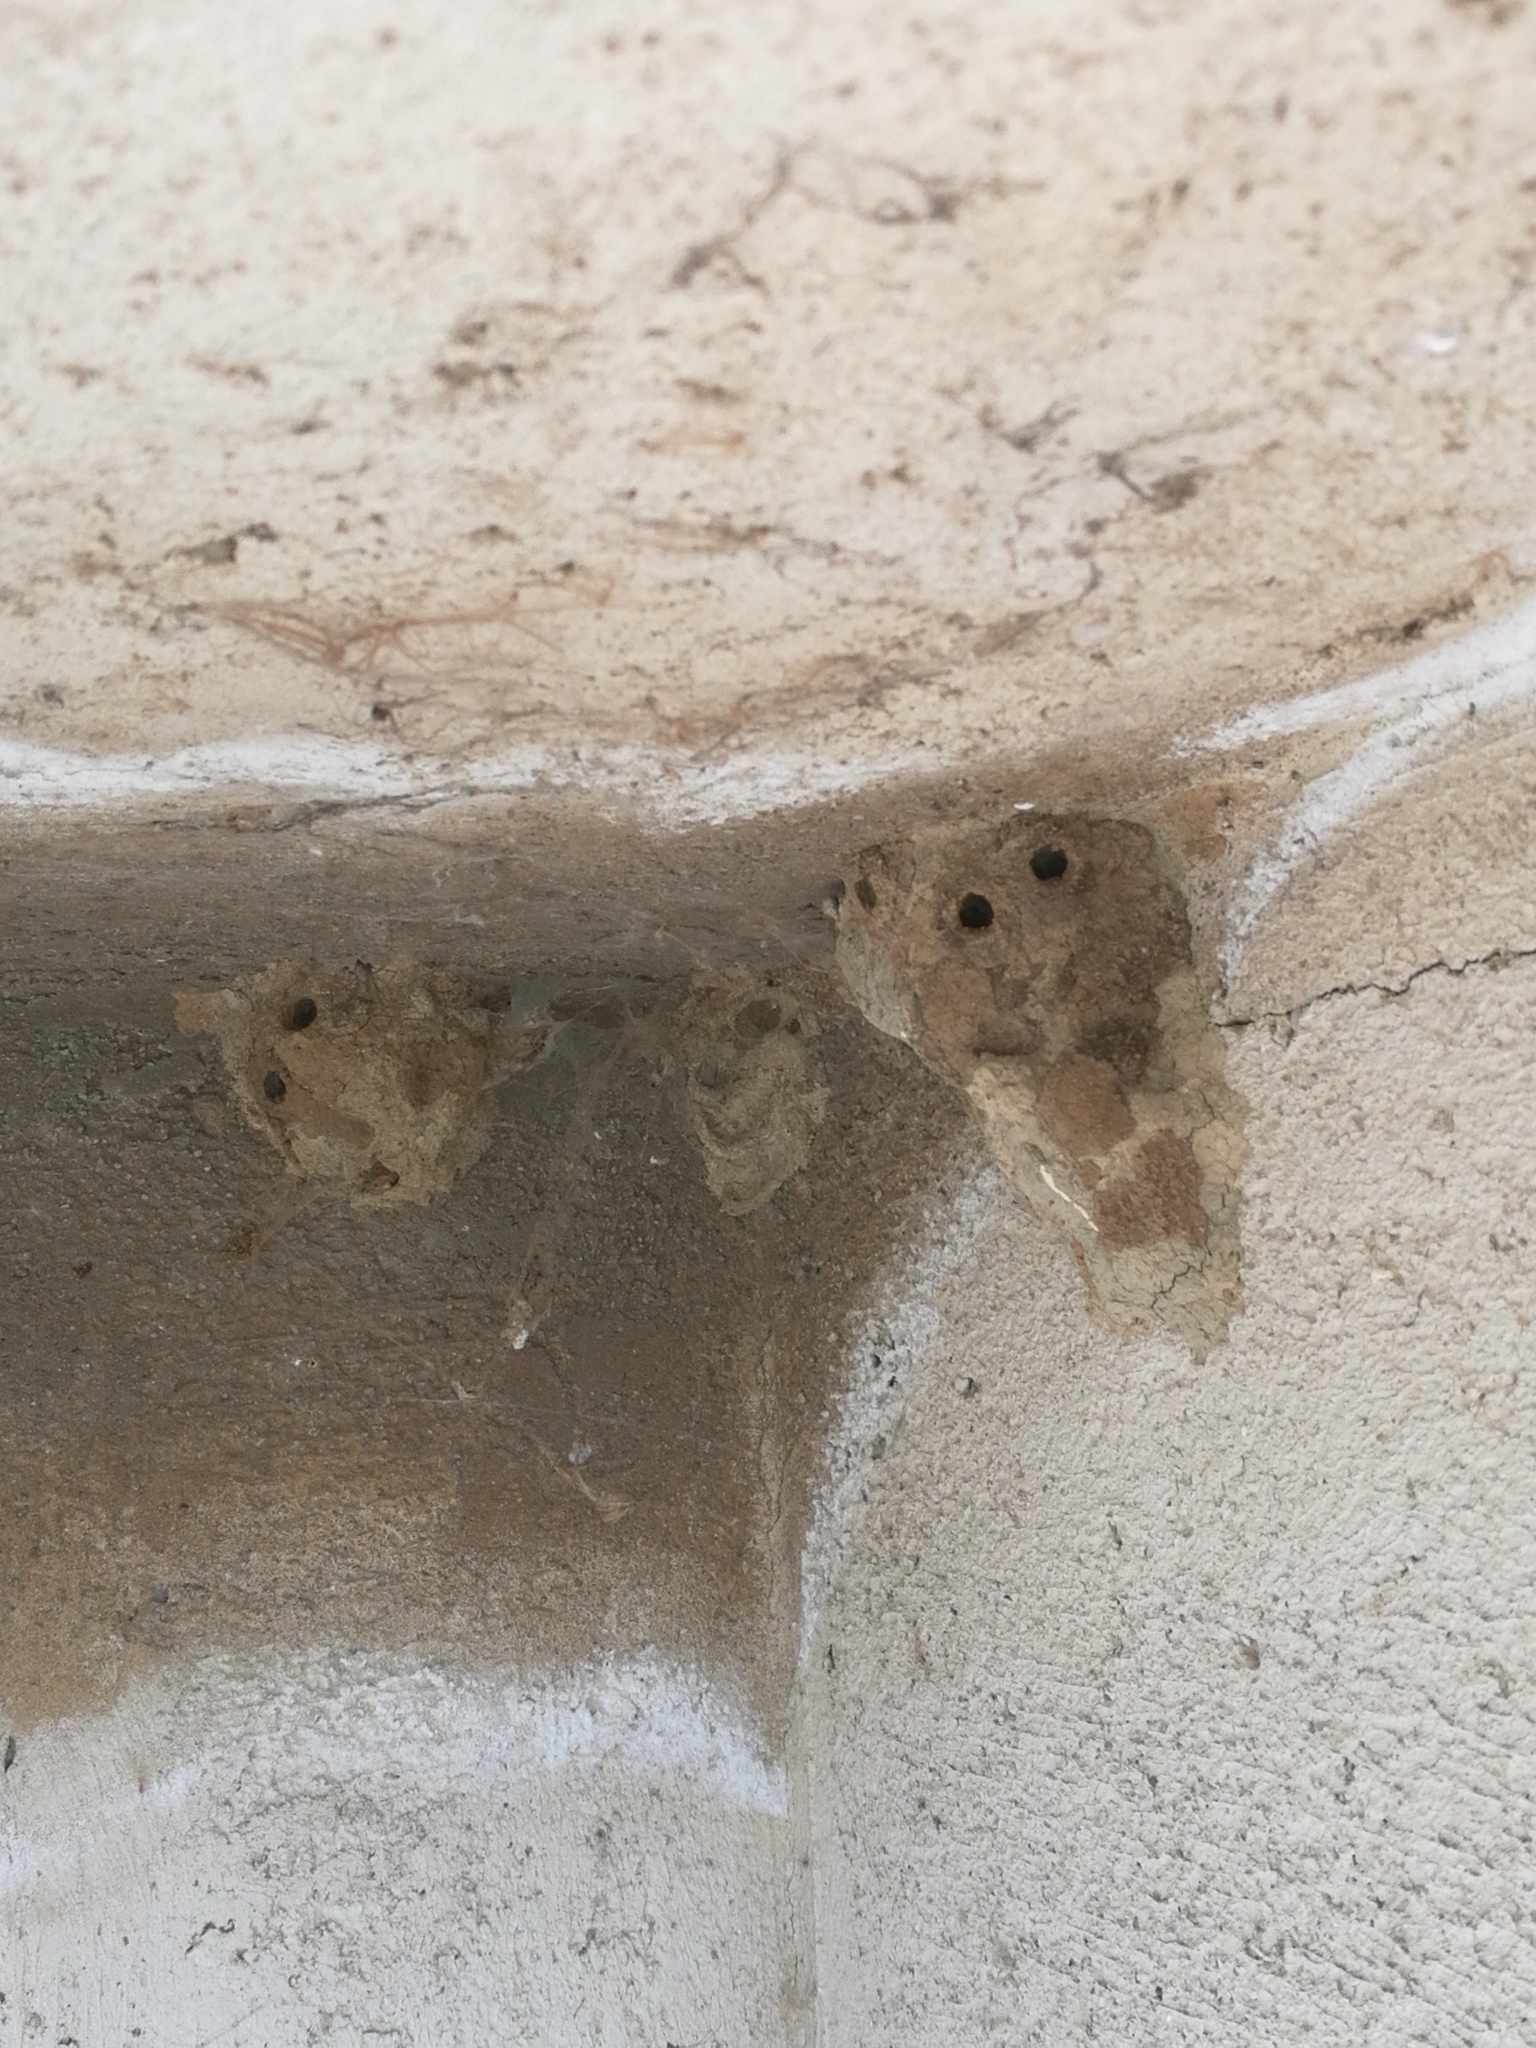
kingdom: Animalia
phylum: Arthropoda
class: Insecta
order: Hymenoptera
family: Sphecidae
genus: Sceliphron
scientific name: Sceliphron
